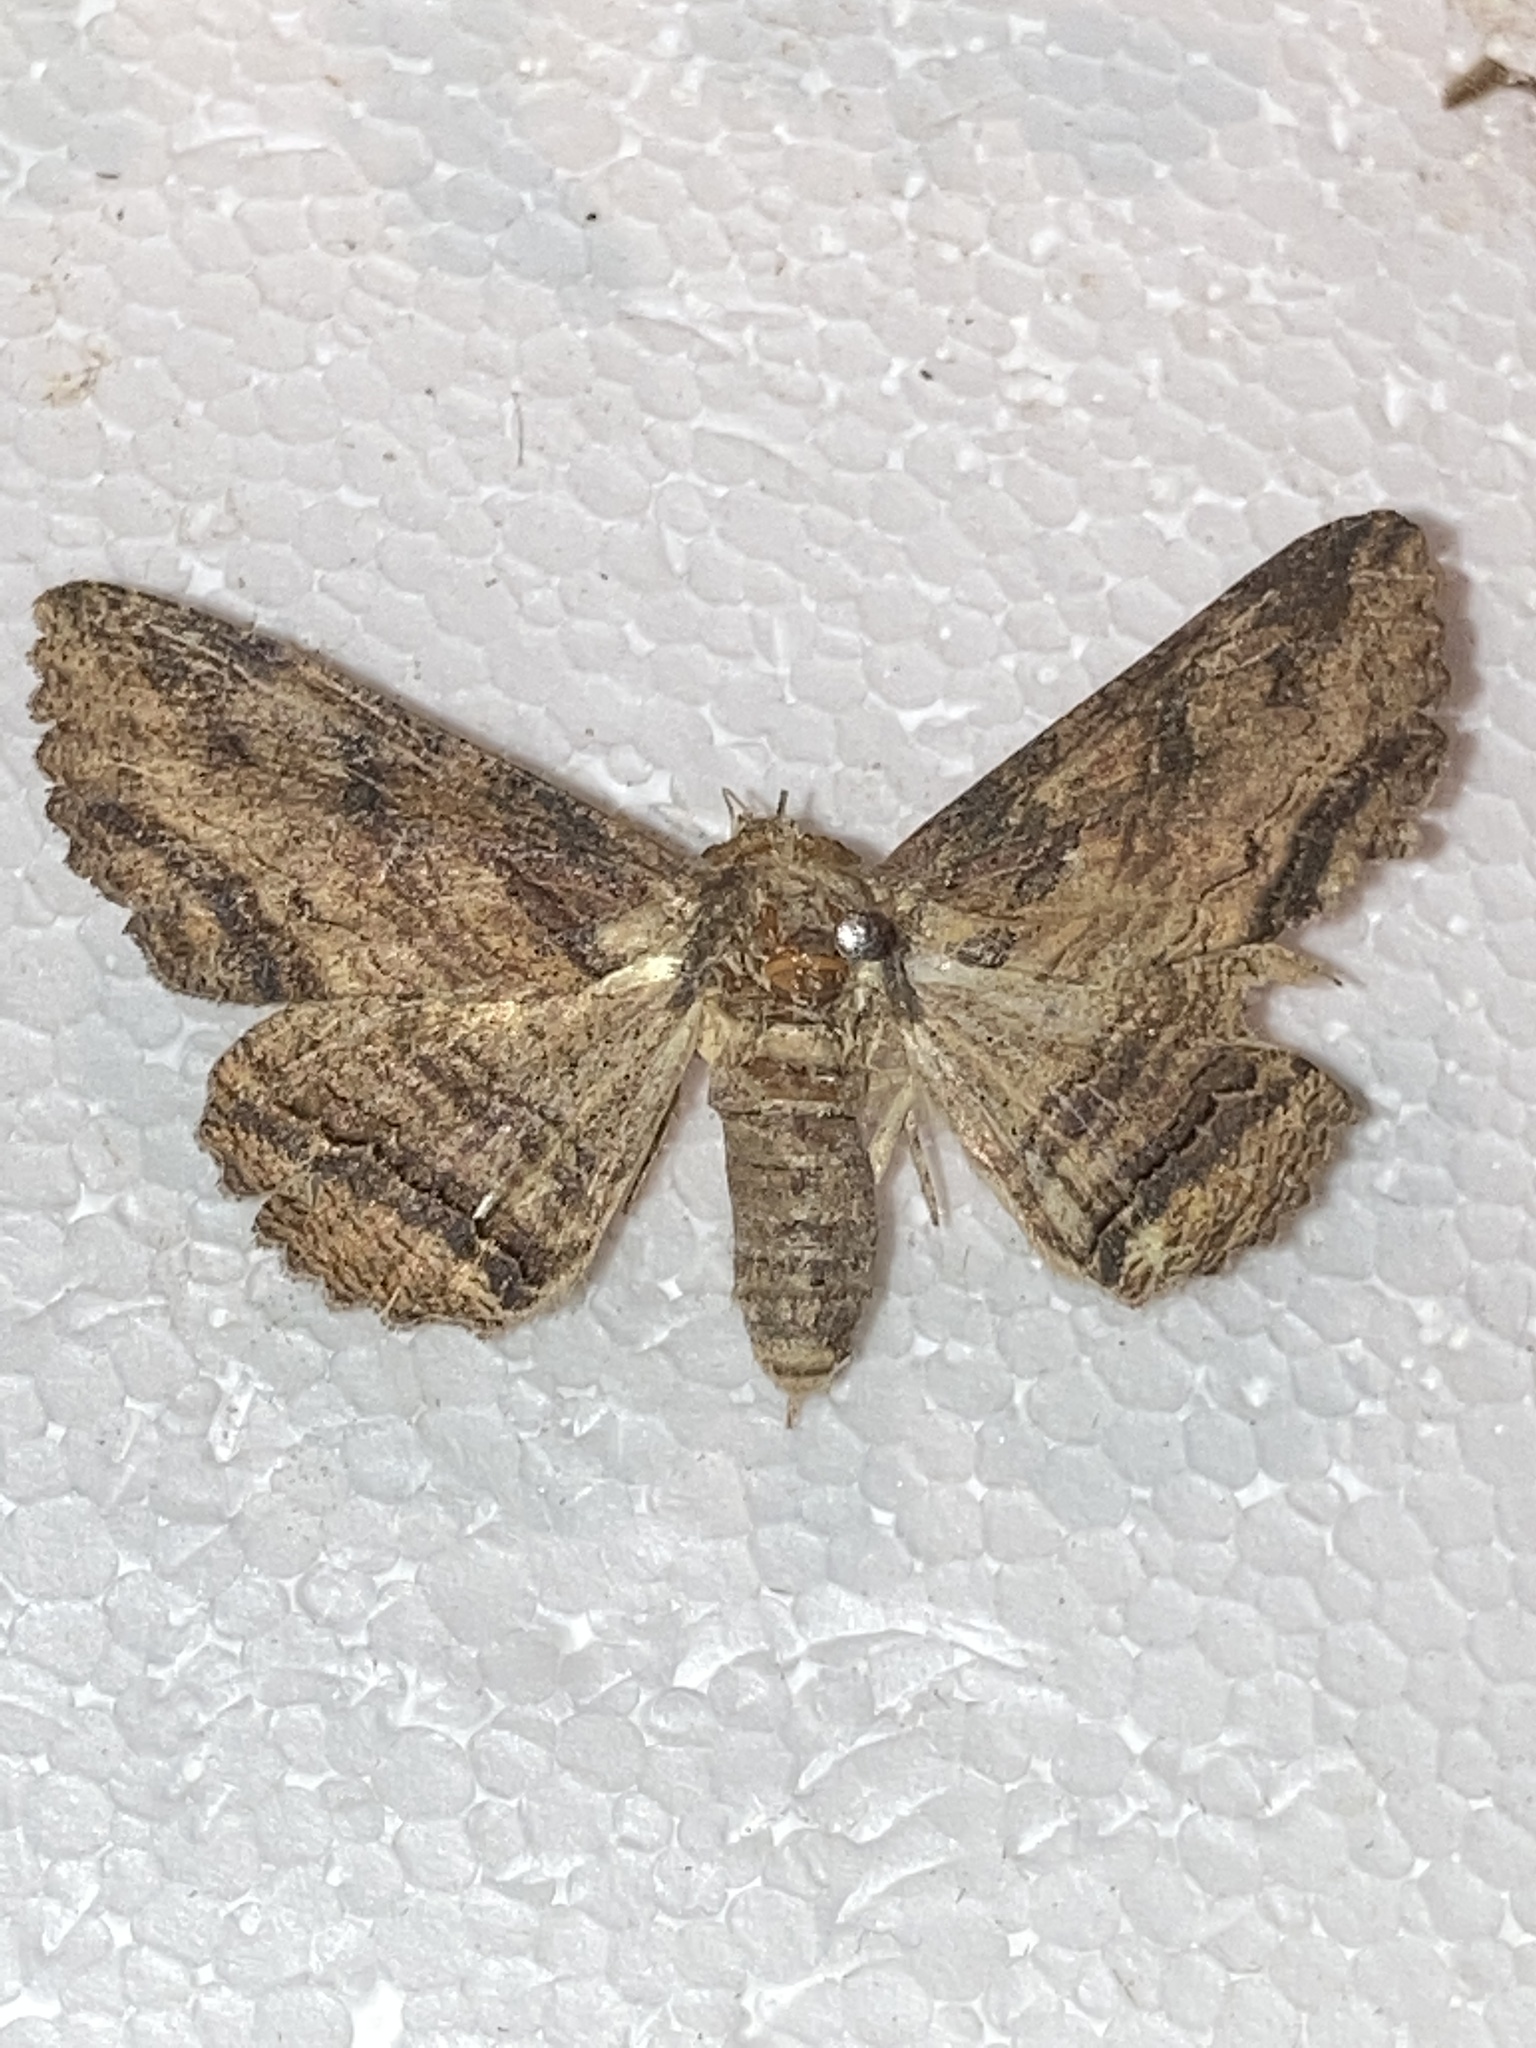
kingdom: Animalia
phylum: Arthropoda
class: Insecta
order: Lepidoptera
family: Erebidae
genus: Zale
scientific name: Zale lunata
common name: Lunate zale moth
